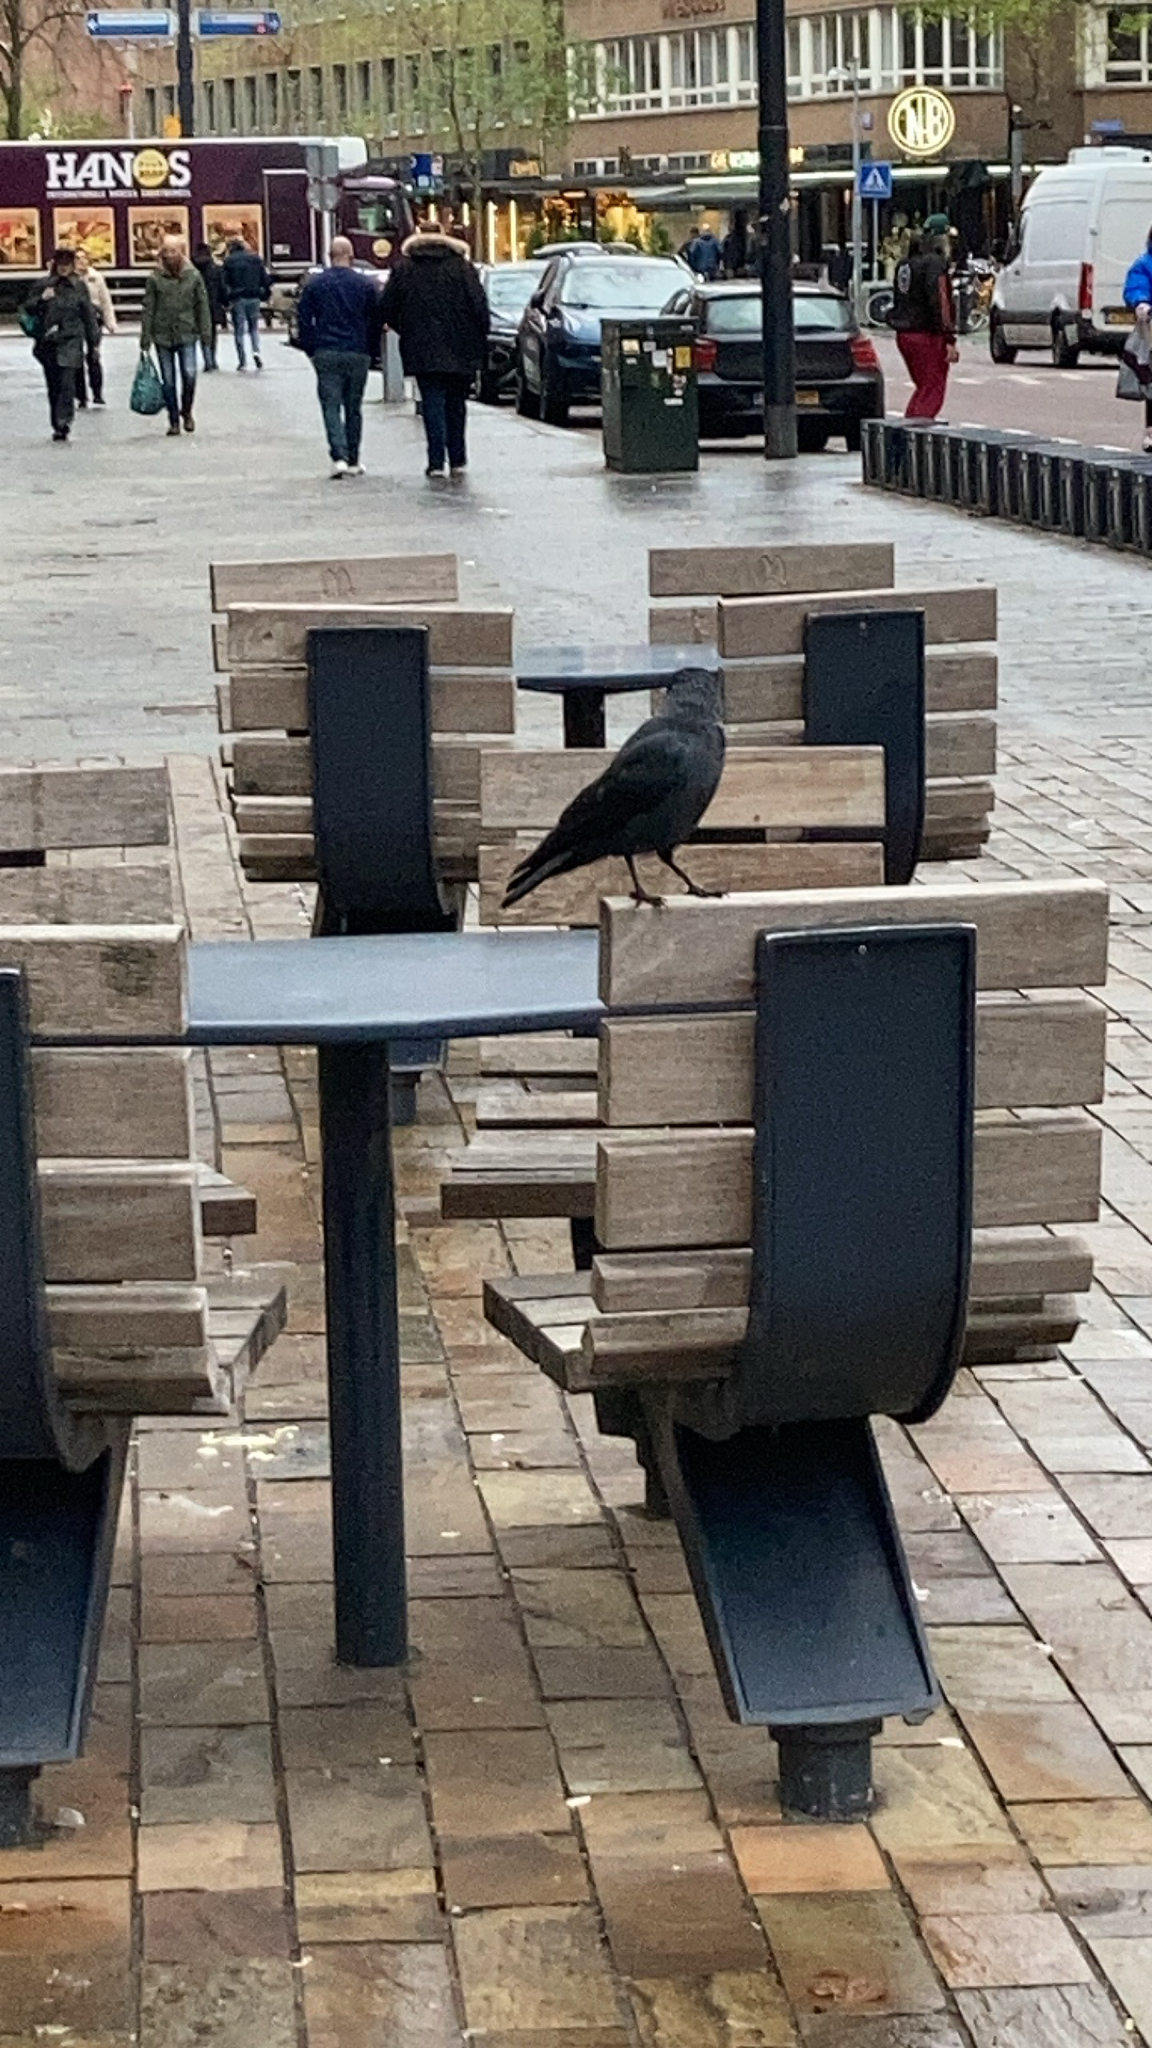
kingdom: Animalia
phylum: Chordata
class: Aves
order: Passeriformes
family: Corvidae
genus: Coloeus
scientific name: Coloeus monedula
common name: Western jackdaw
